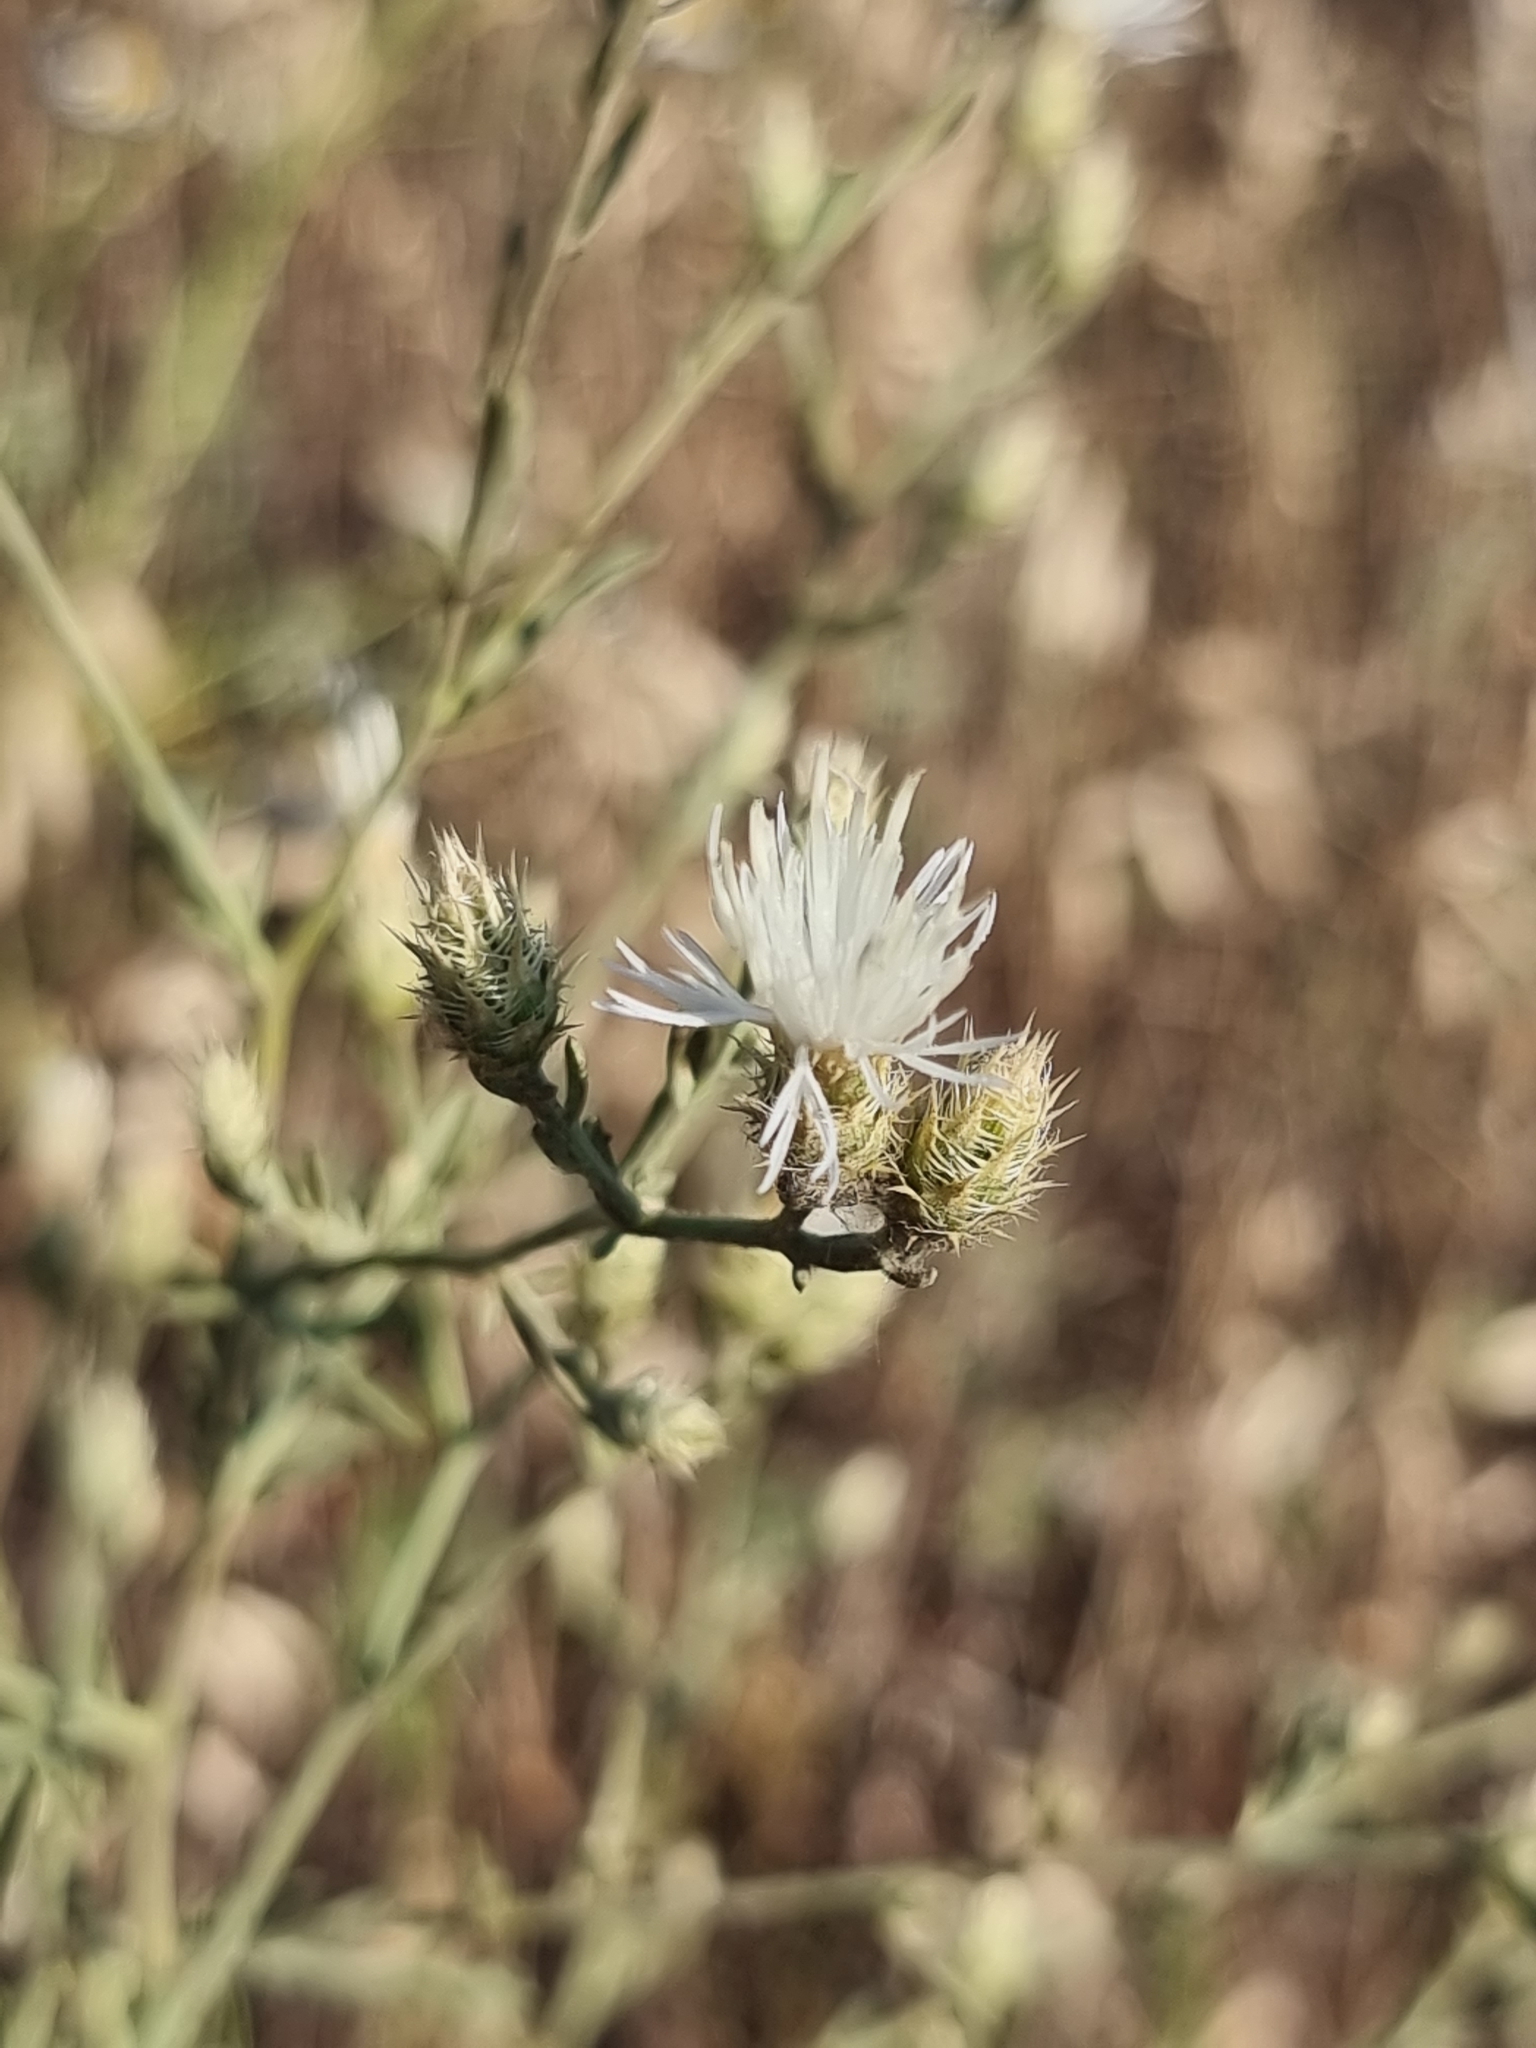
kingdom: Plantae
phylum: Tracheophyta
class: Magnoliopsida
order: Asterales
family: Asteraceae
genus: Centaurea
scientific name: Centaurea diffusa
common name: Diffuse knapweed
